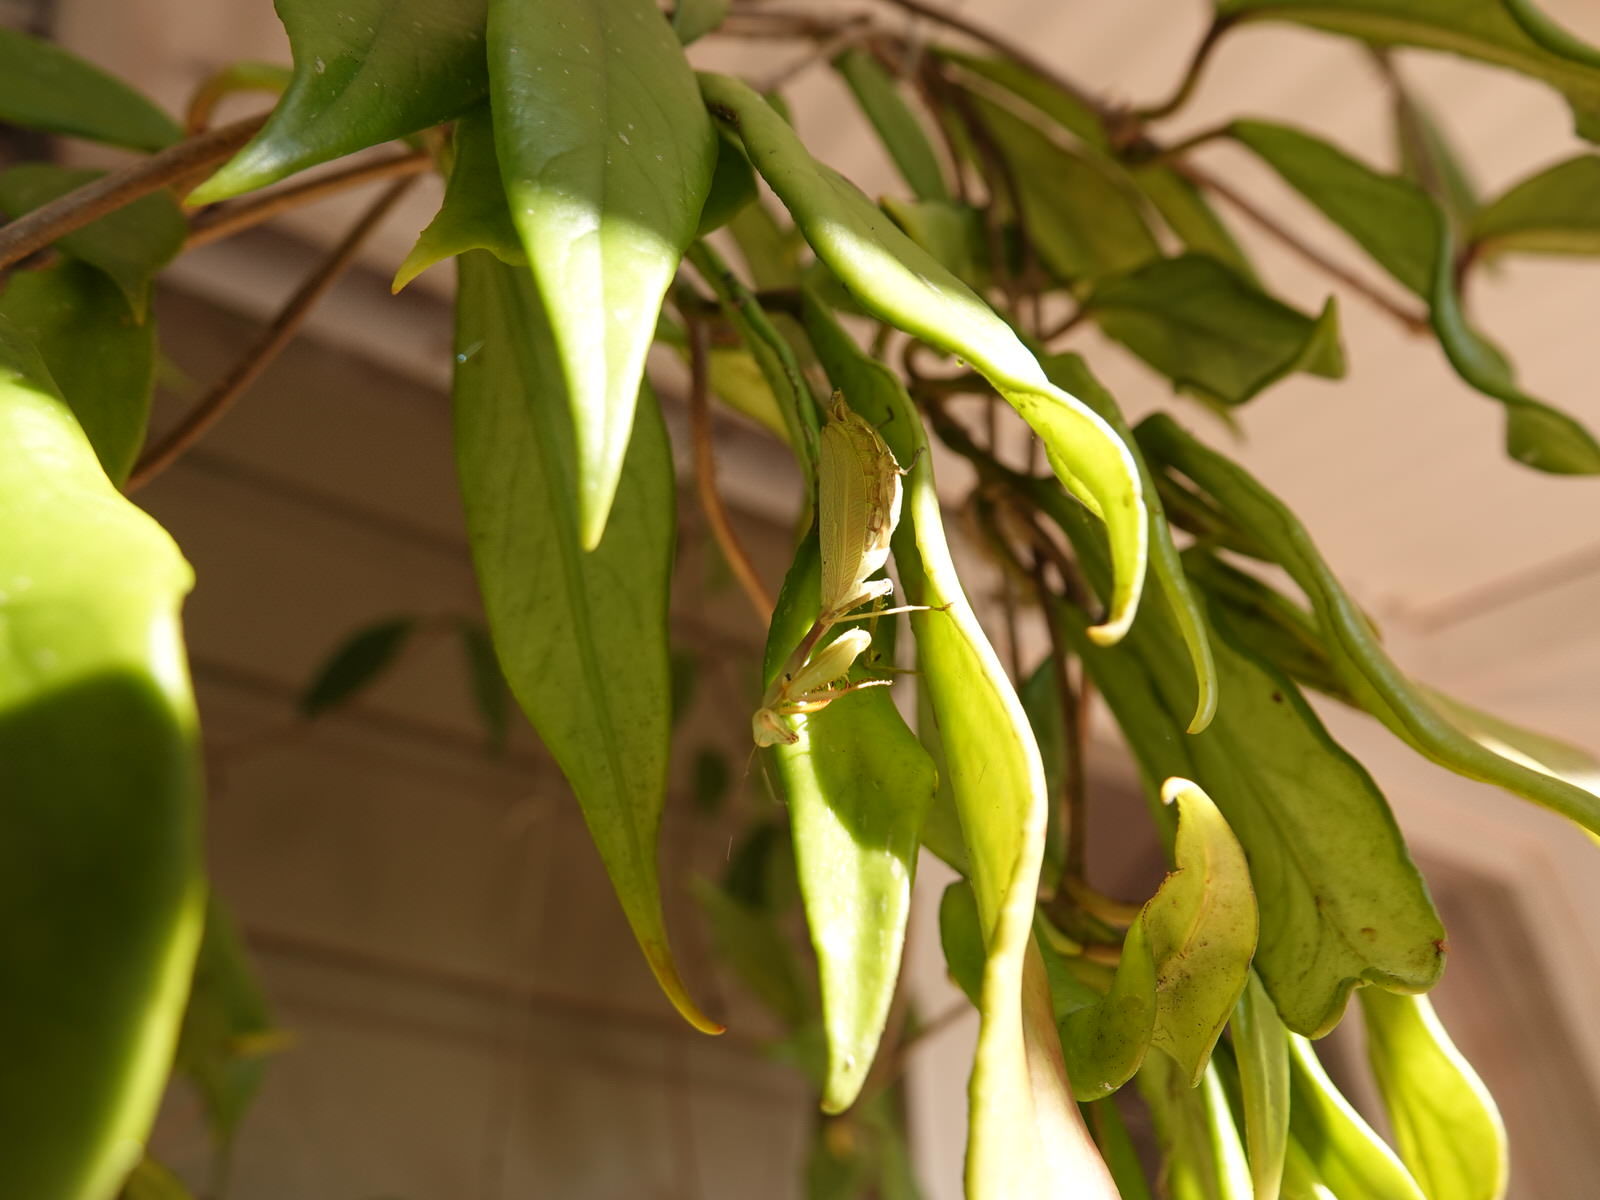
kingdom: Animalia
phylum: Arthropoda
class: Insecta
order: Mantodea
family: Miomantidae
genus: Miomantis
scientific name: Miomantis caffra
